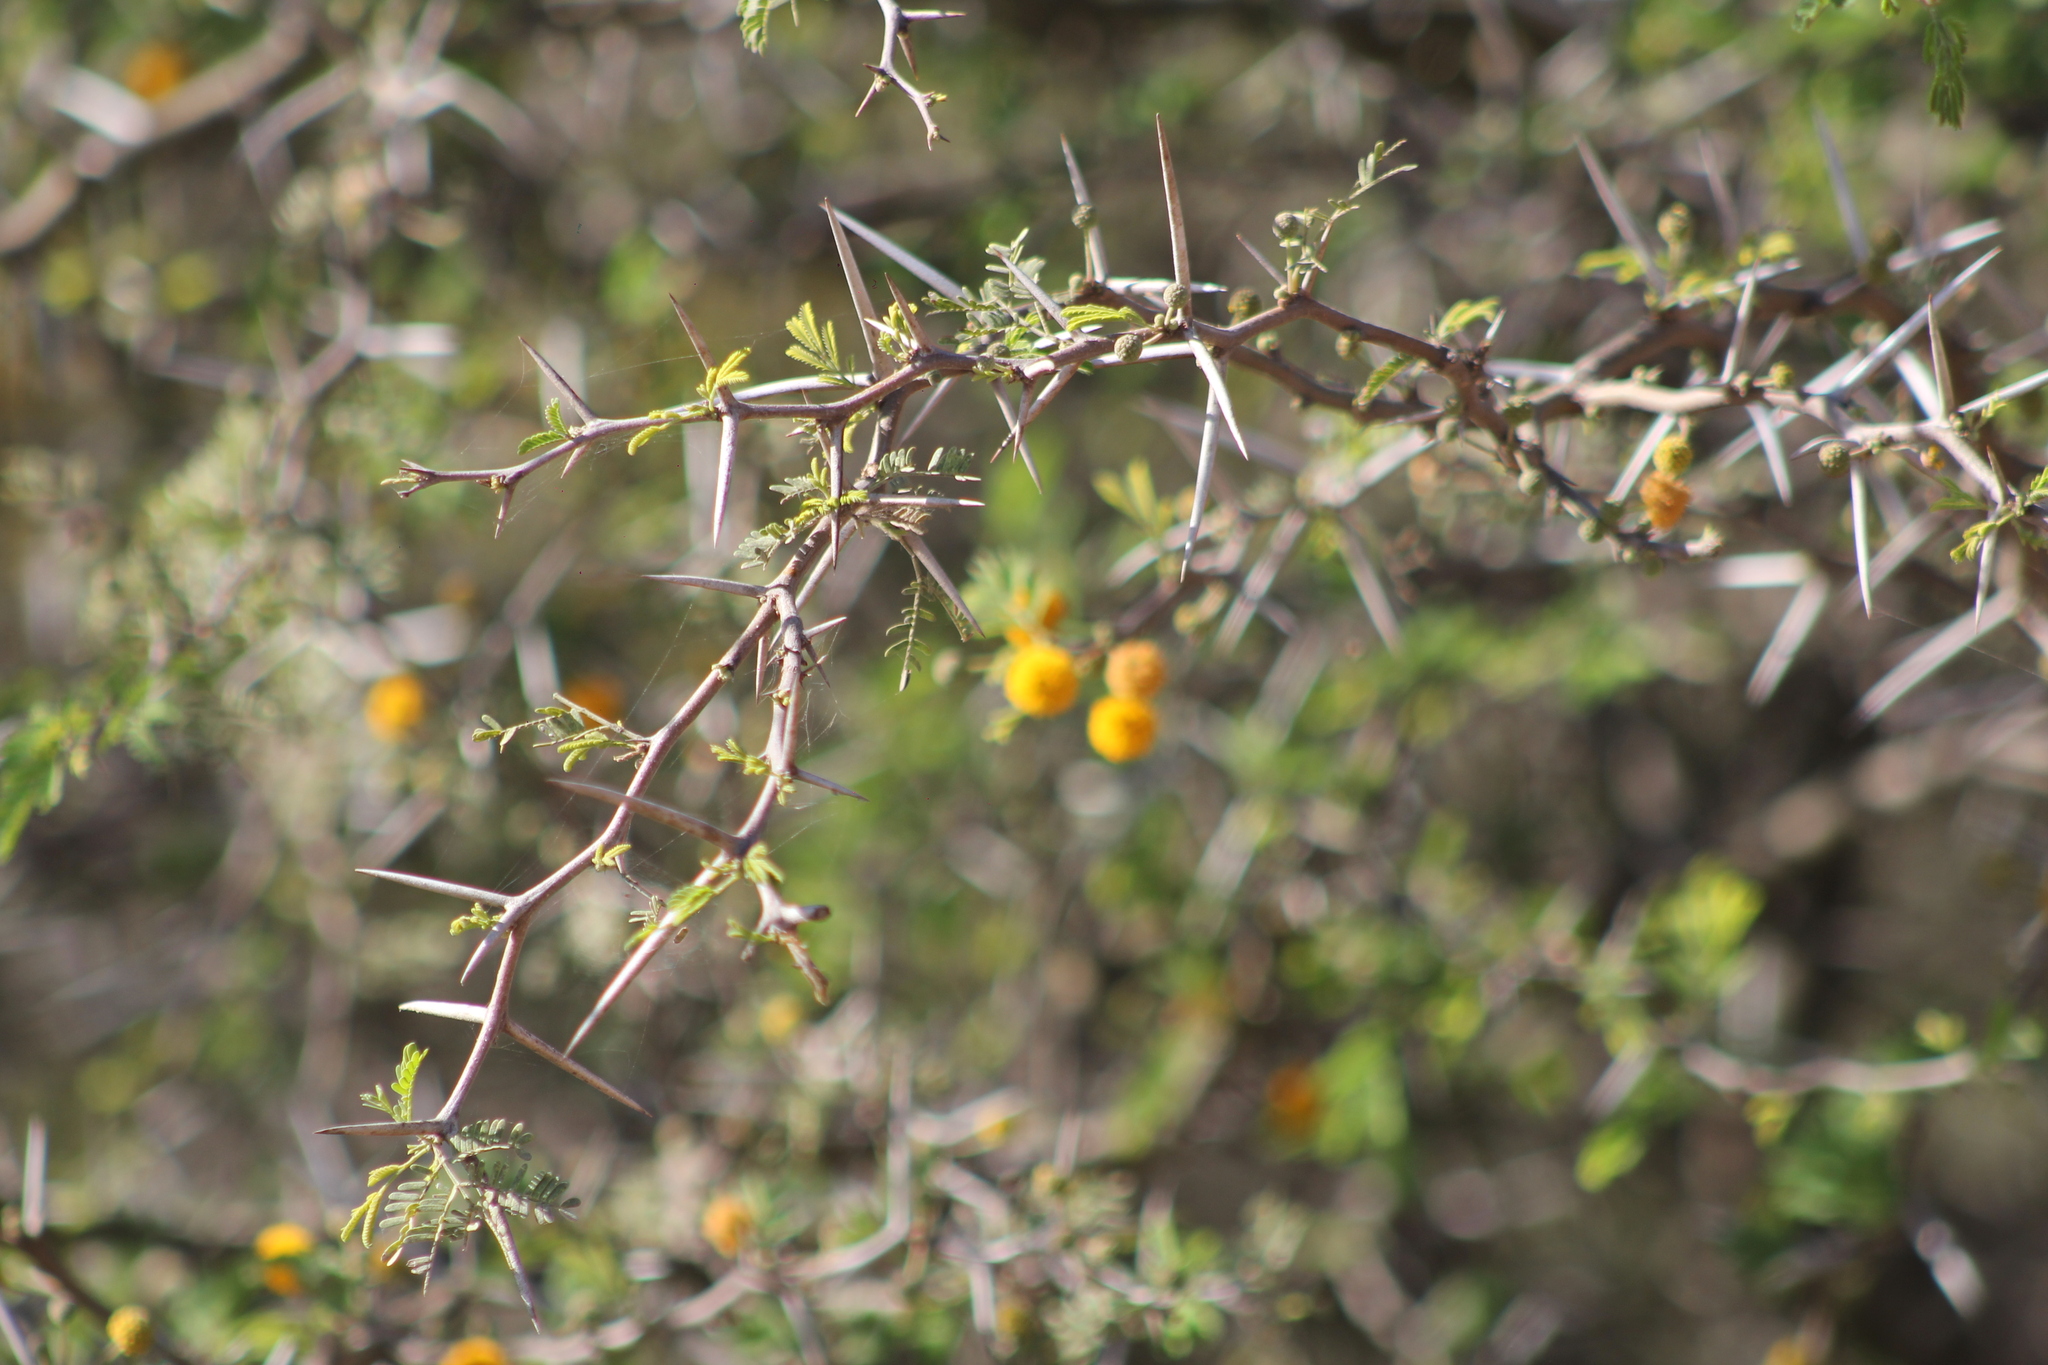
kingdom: Plantae
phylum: Tracheophyta
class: Magnoliopsida
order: Fabales
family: Fabaceae
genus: Vachellia
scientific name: Vachellia caven
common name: Roman cassie
